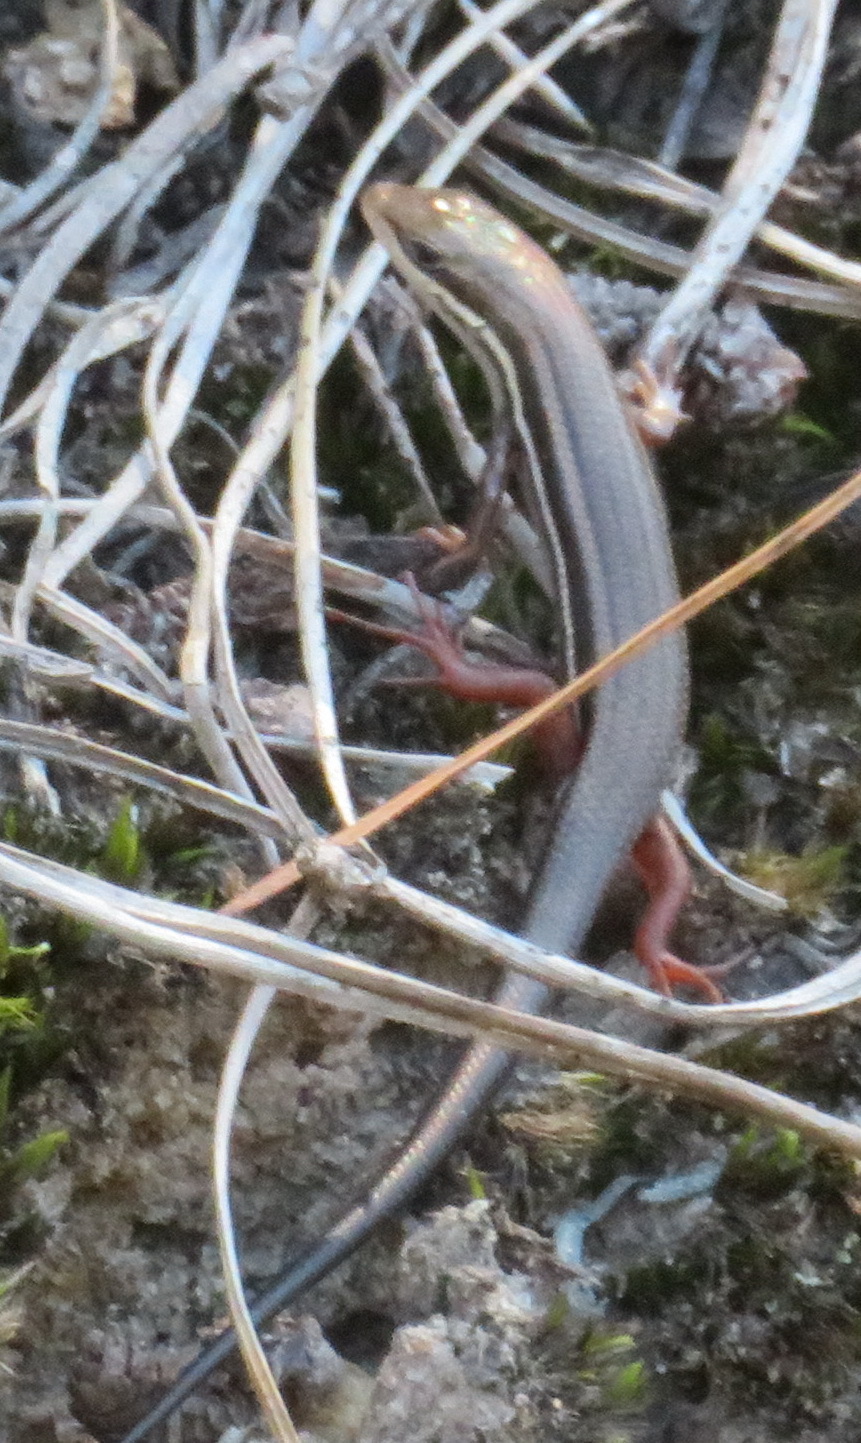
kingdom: Animalia
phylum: Chordata
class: Squamata
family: Scincidae
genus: Trachylepis
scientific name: Trachylepis homalocephala
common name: Red-sided skink
